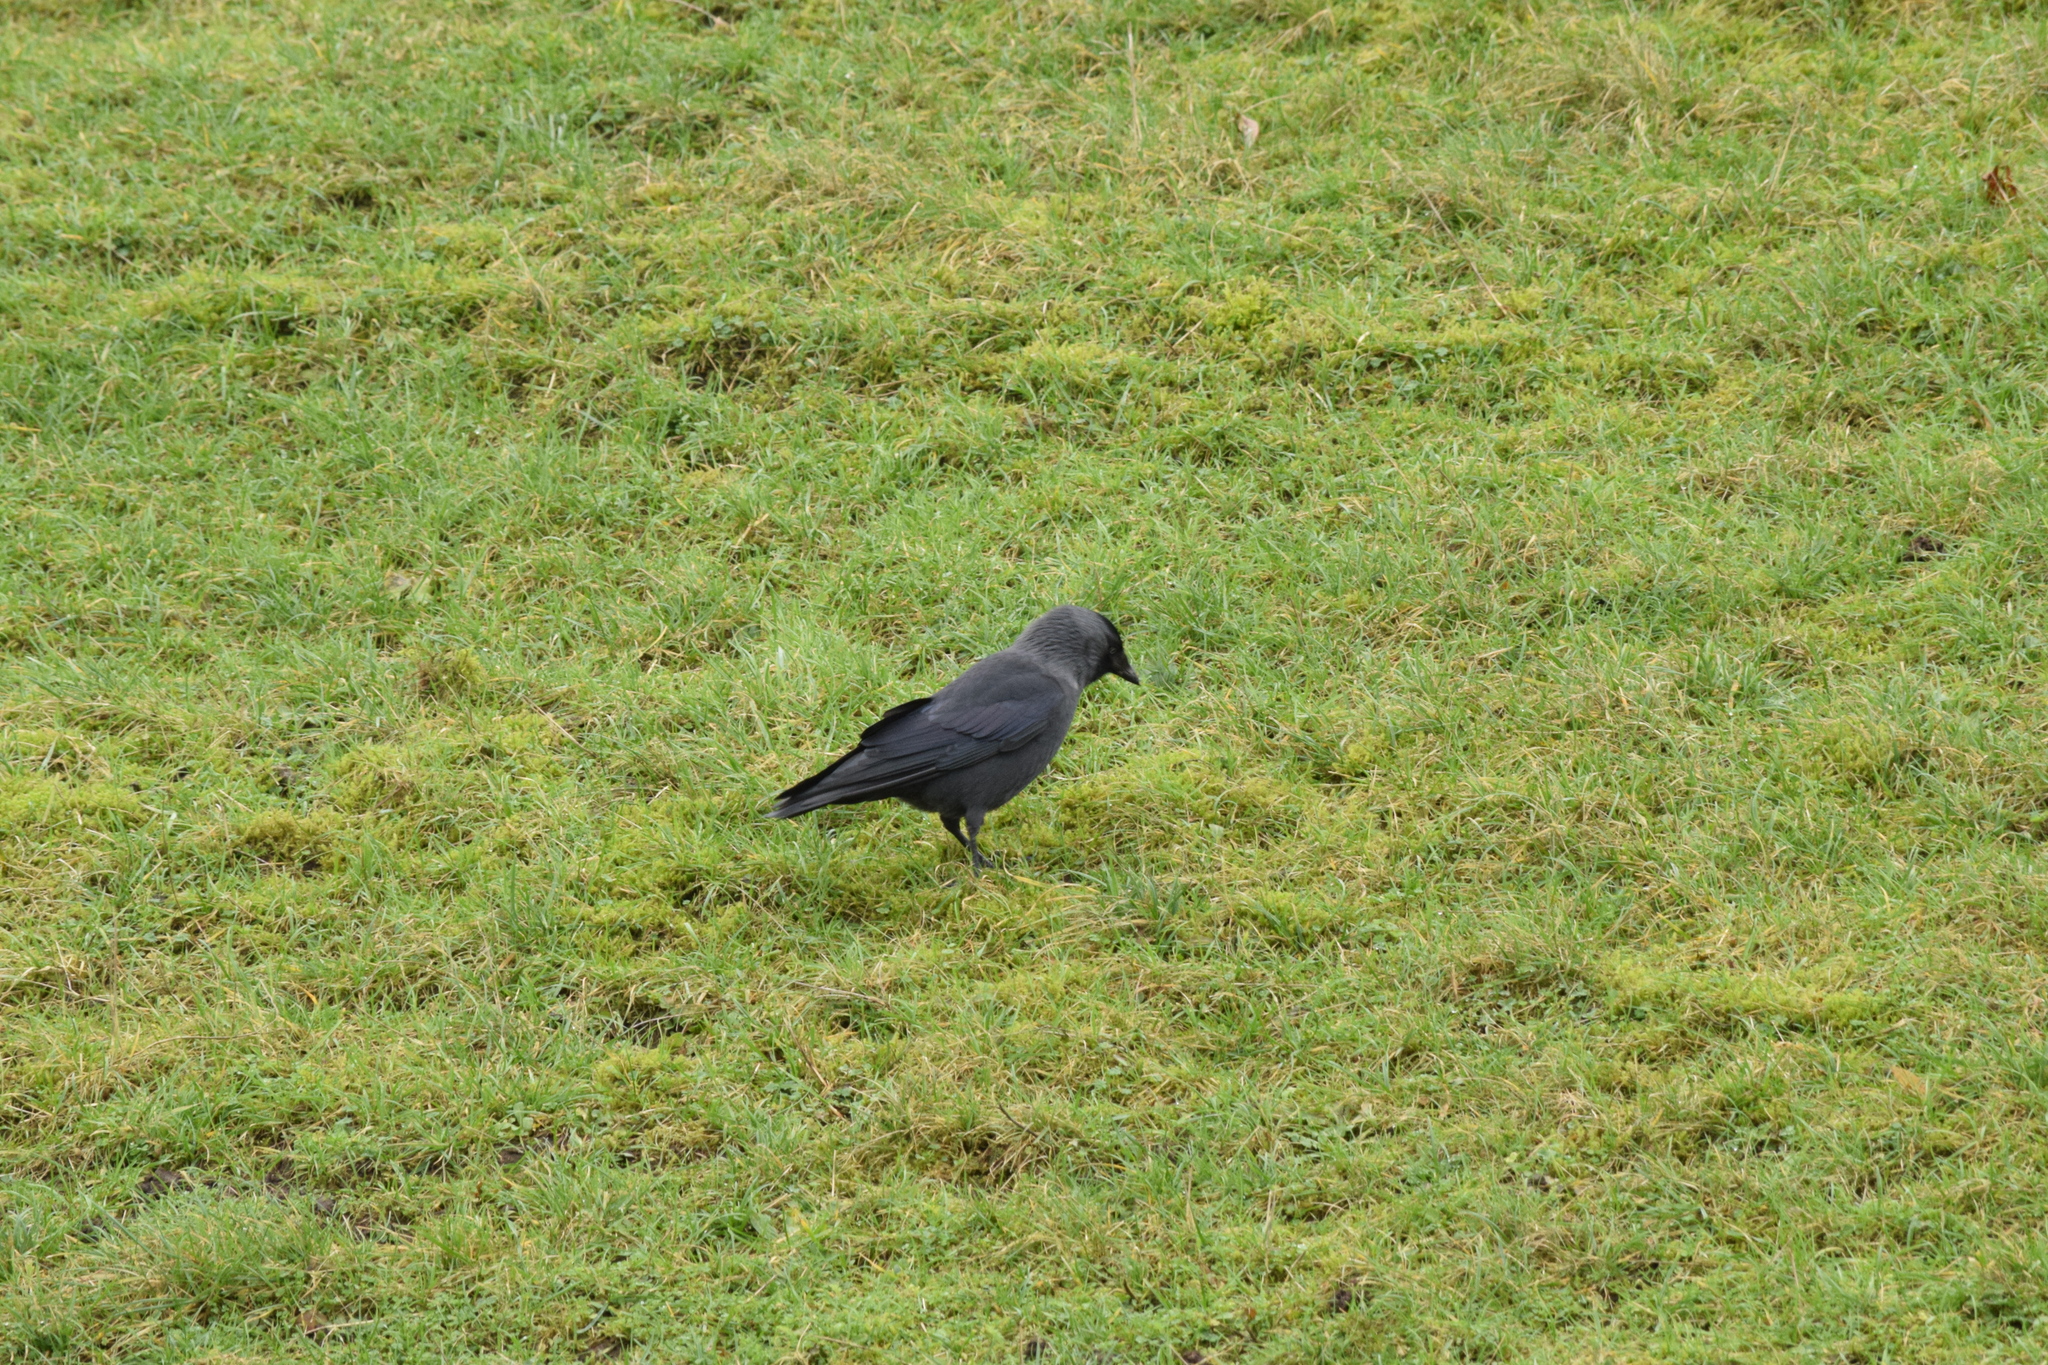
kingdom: Animalia
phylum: Chordata
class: Aves
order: Passeriformes
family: Corvidae
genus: Coloeus
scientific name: Coloeus monedula
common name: Western jackdaw
